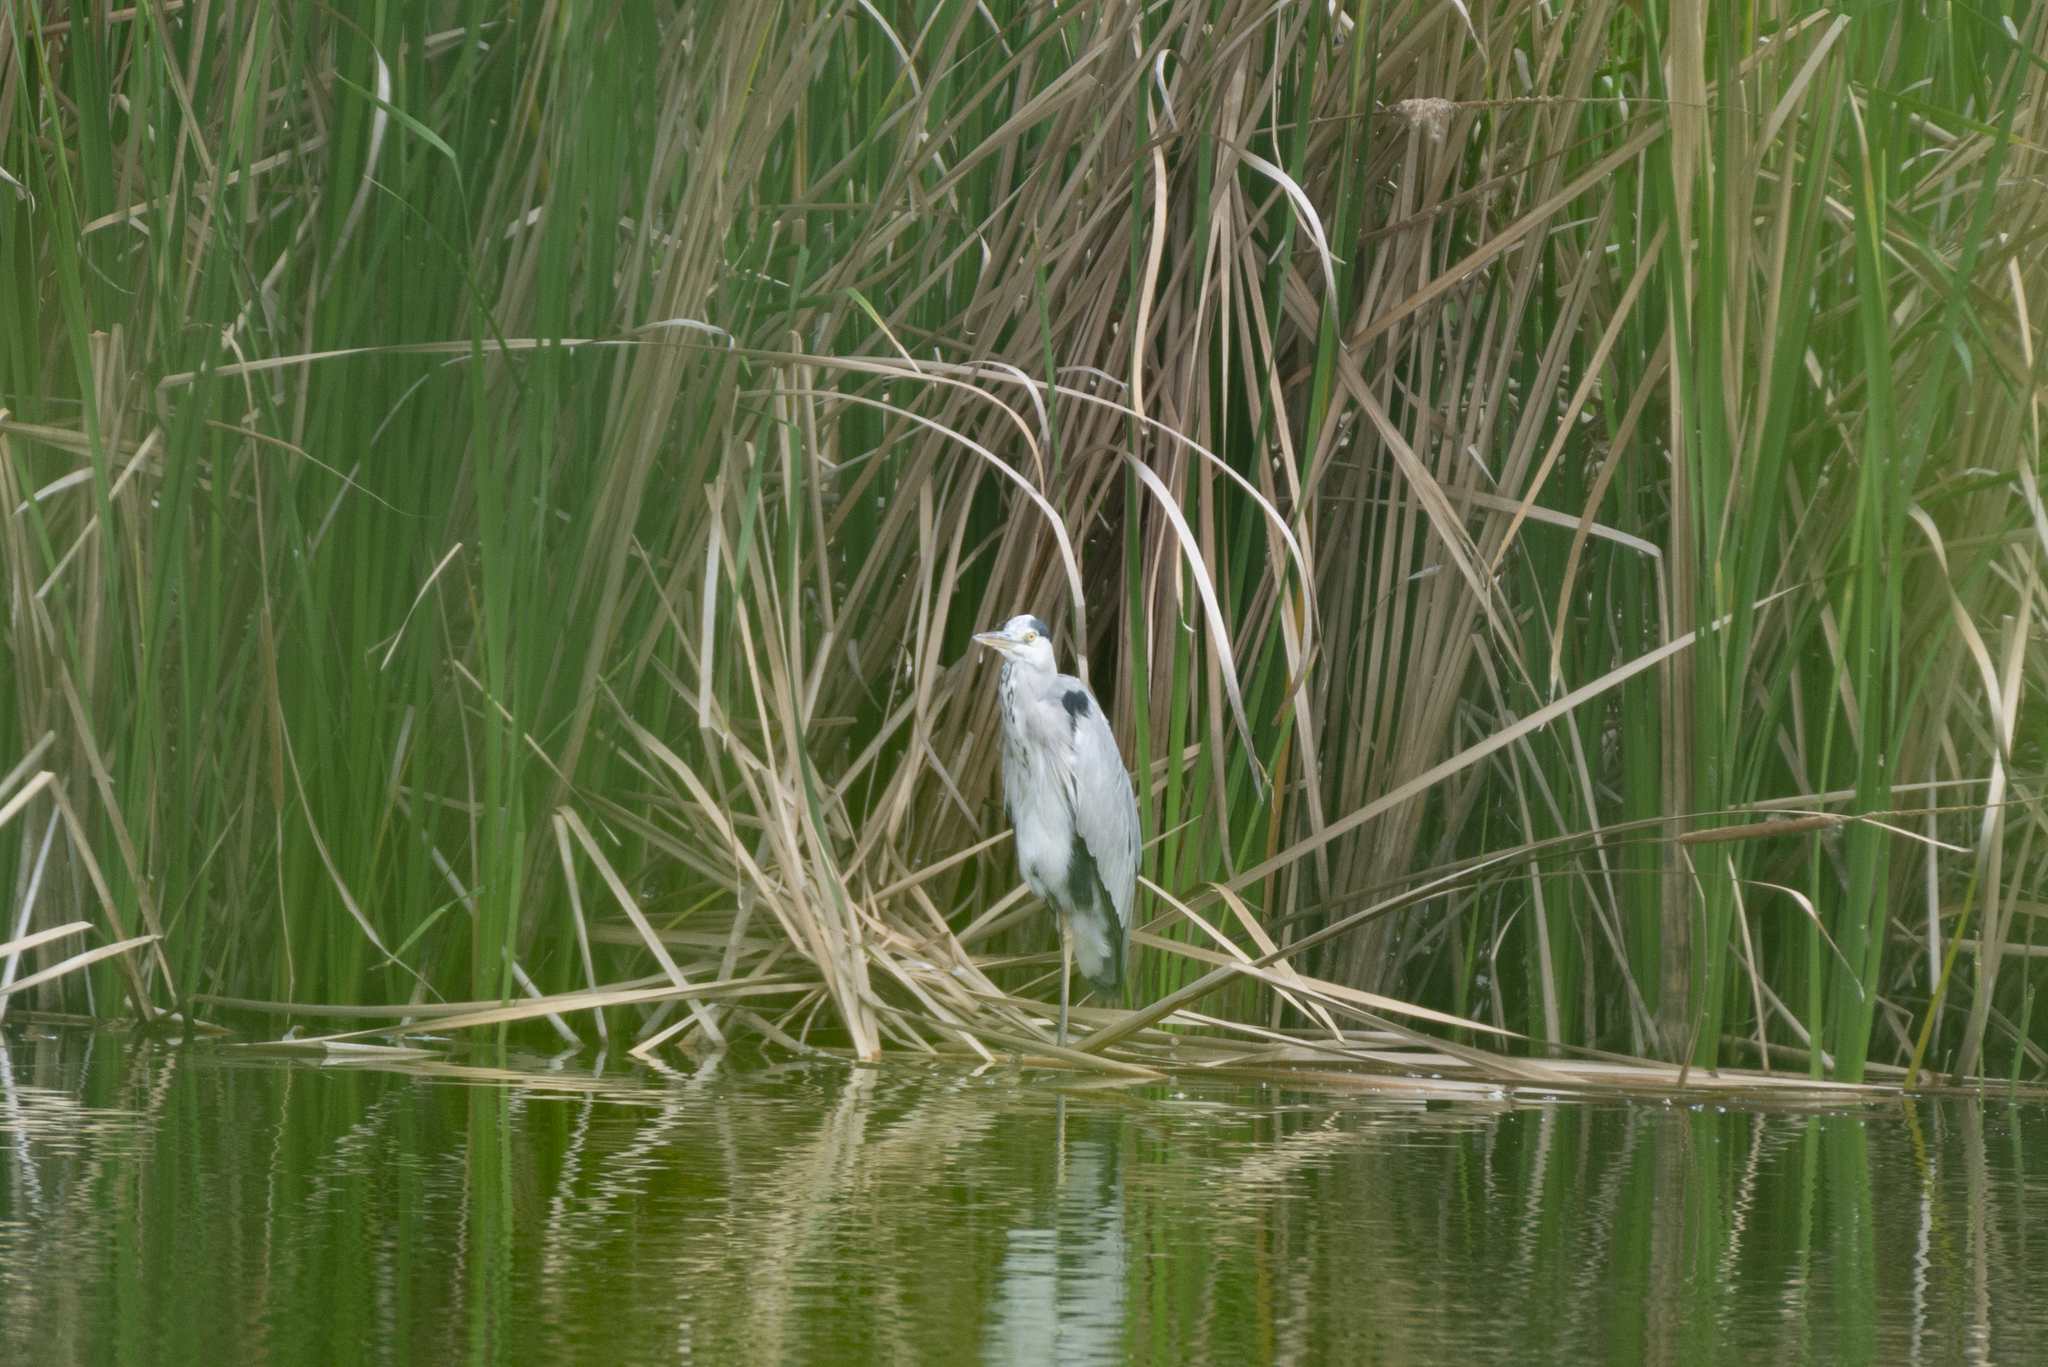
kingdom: Animalia
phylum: Chordata
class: Aves
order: Pelecaniformes
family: Ardeidae
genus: Ardea
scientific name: Ardea cinerea
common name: Grey heron
